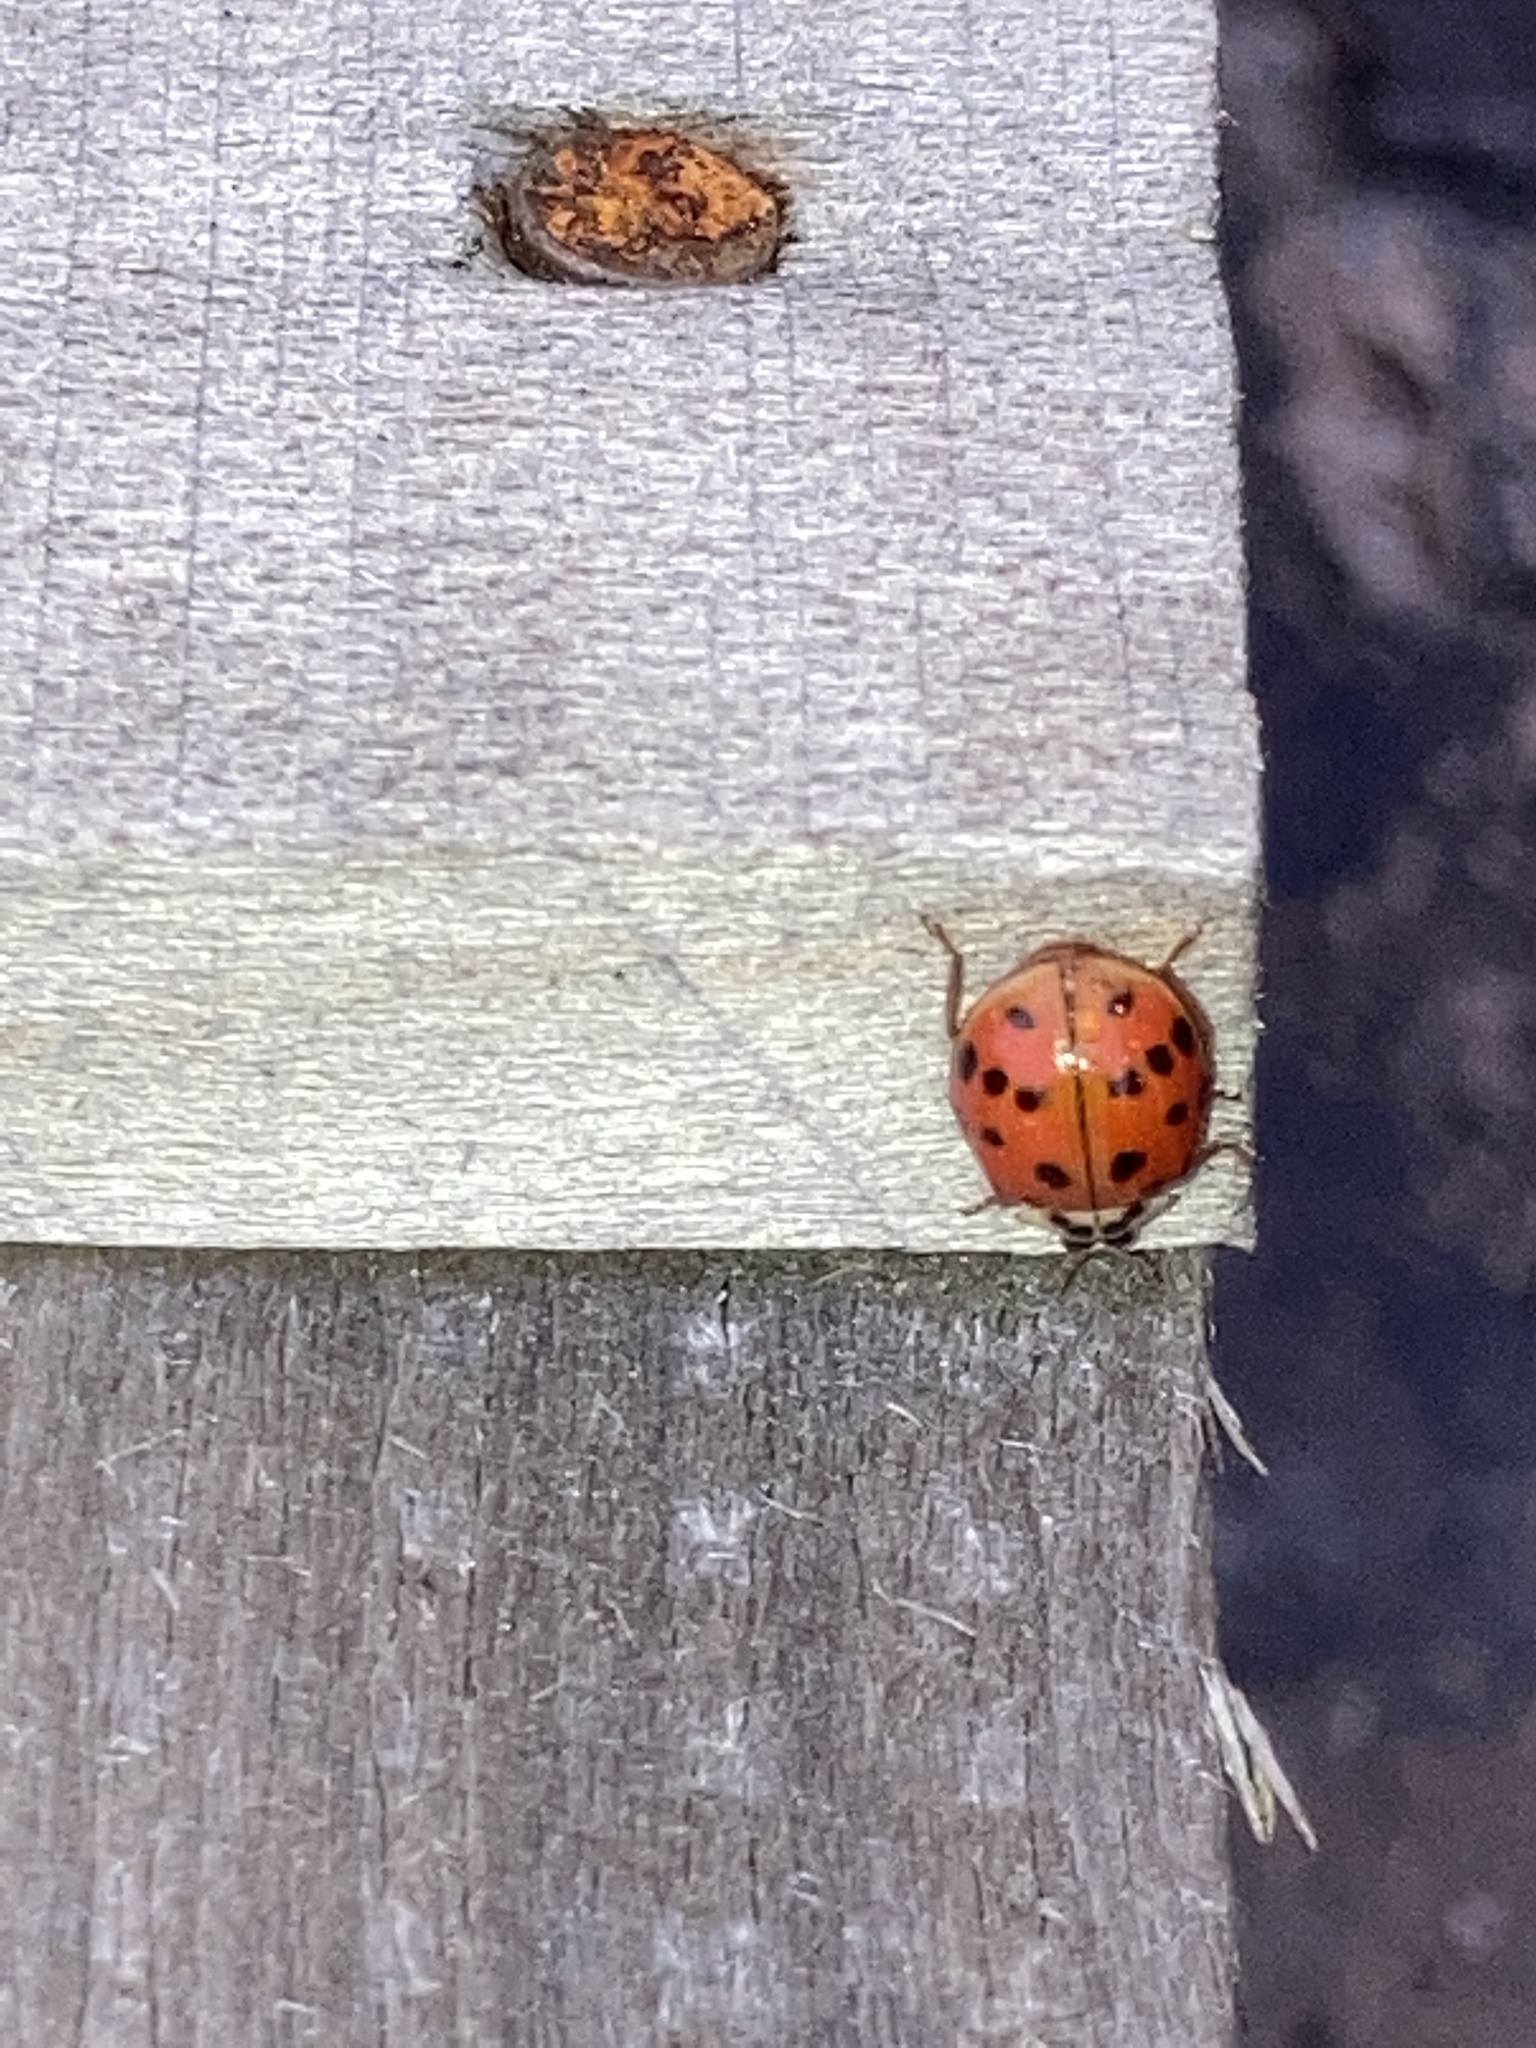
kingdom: Animalia
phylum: Arthropoda
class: Insecta
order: Coleoptera
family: Coccinellidae
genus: Harmonia
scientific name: Harmonia axyridis
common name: Harlequin ladybird
